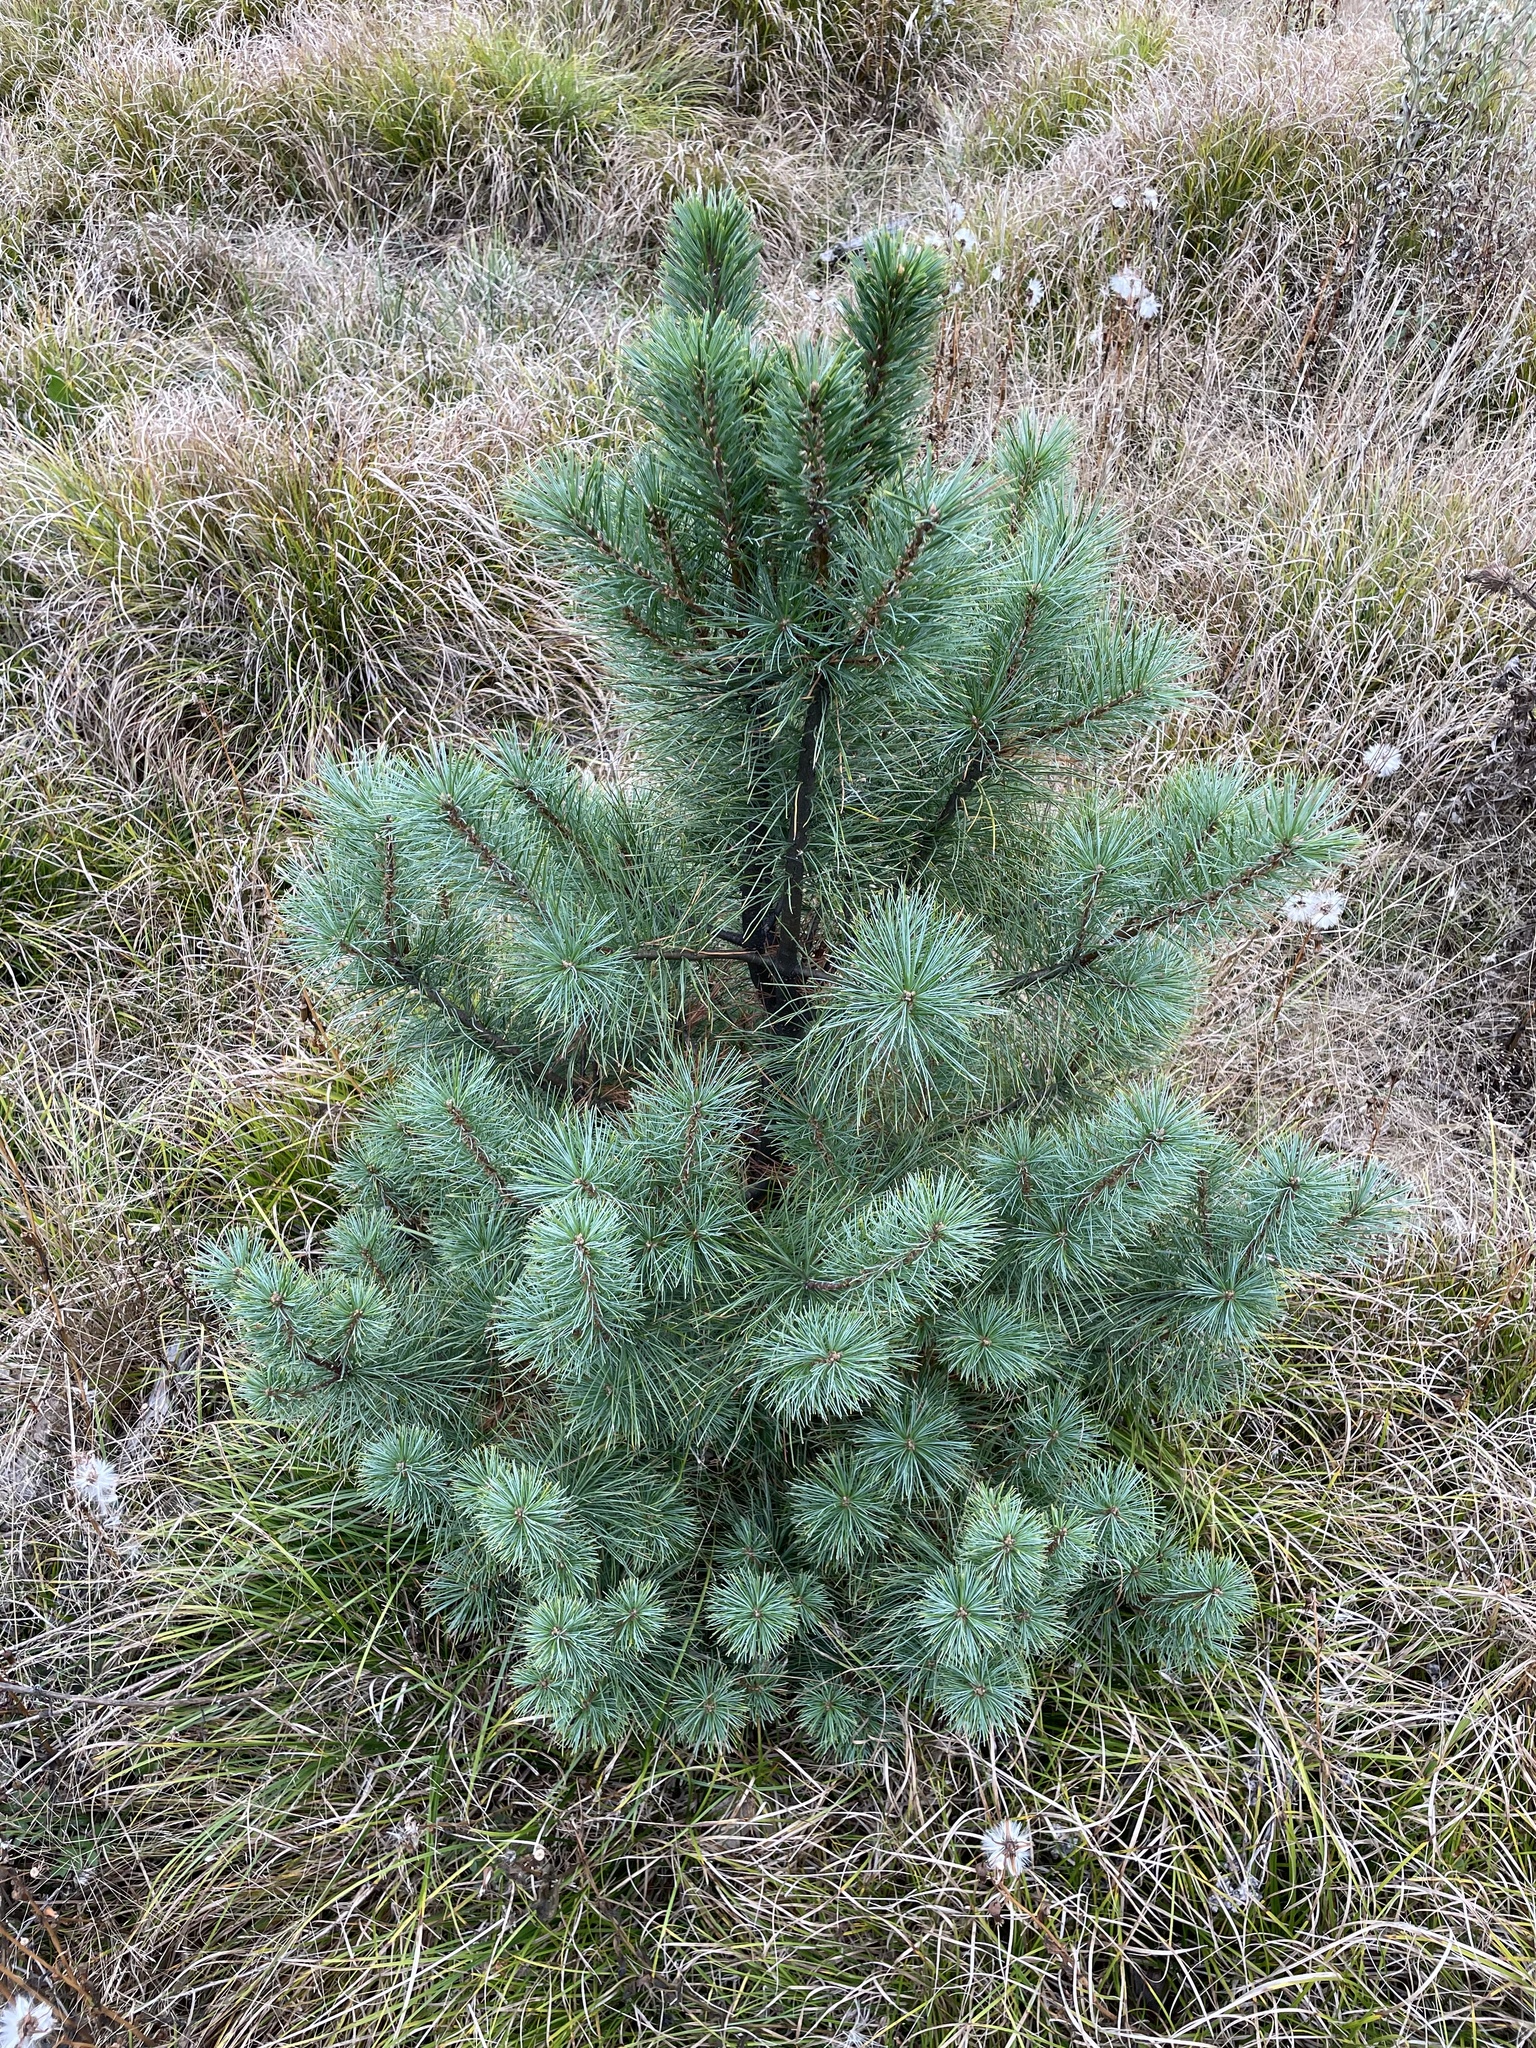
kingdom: Plantae
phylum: Tracheophyta
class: Pinopsida
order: Pinales
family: Pinaceae
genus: Pinus
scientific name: Pinus strobus
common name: Weymouth pine
